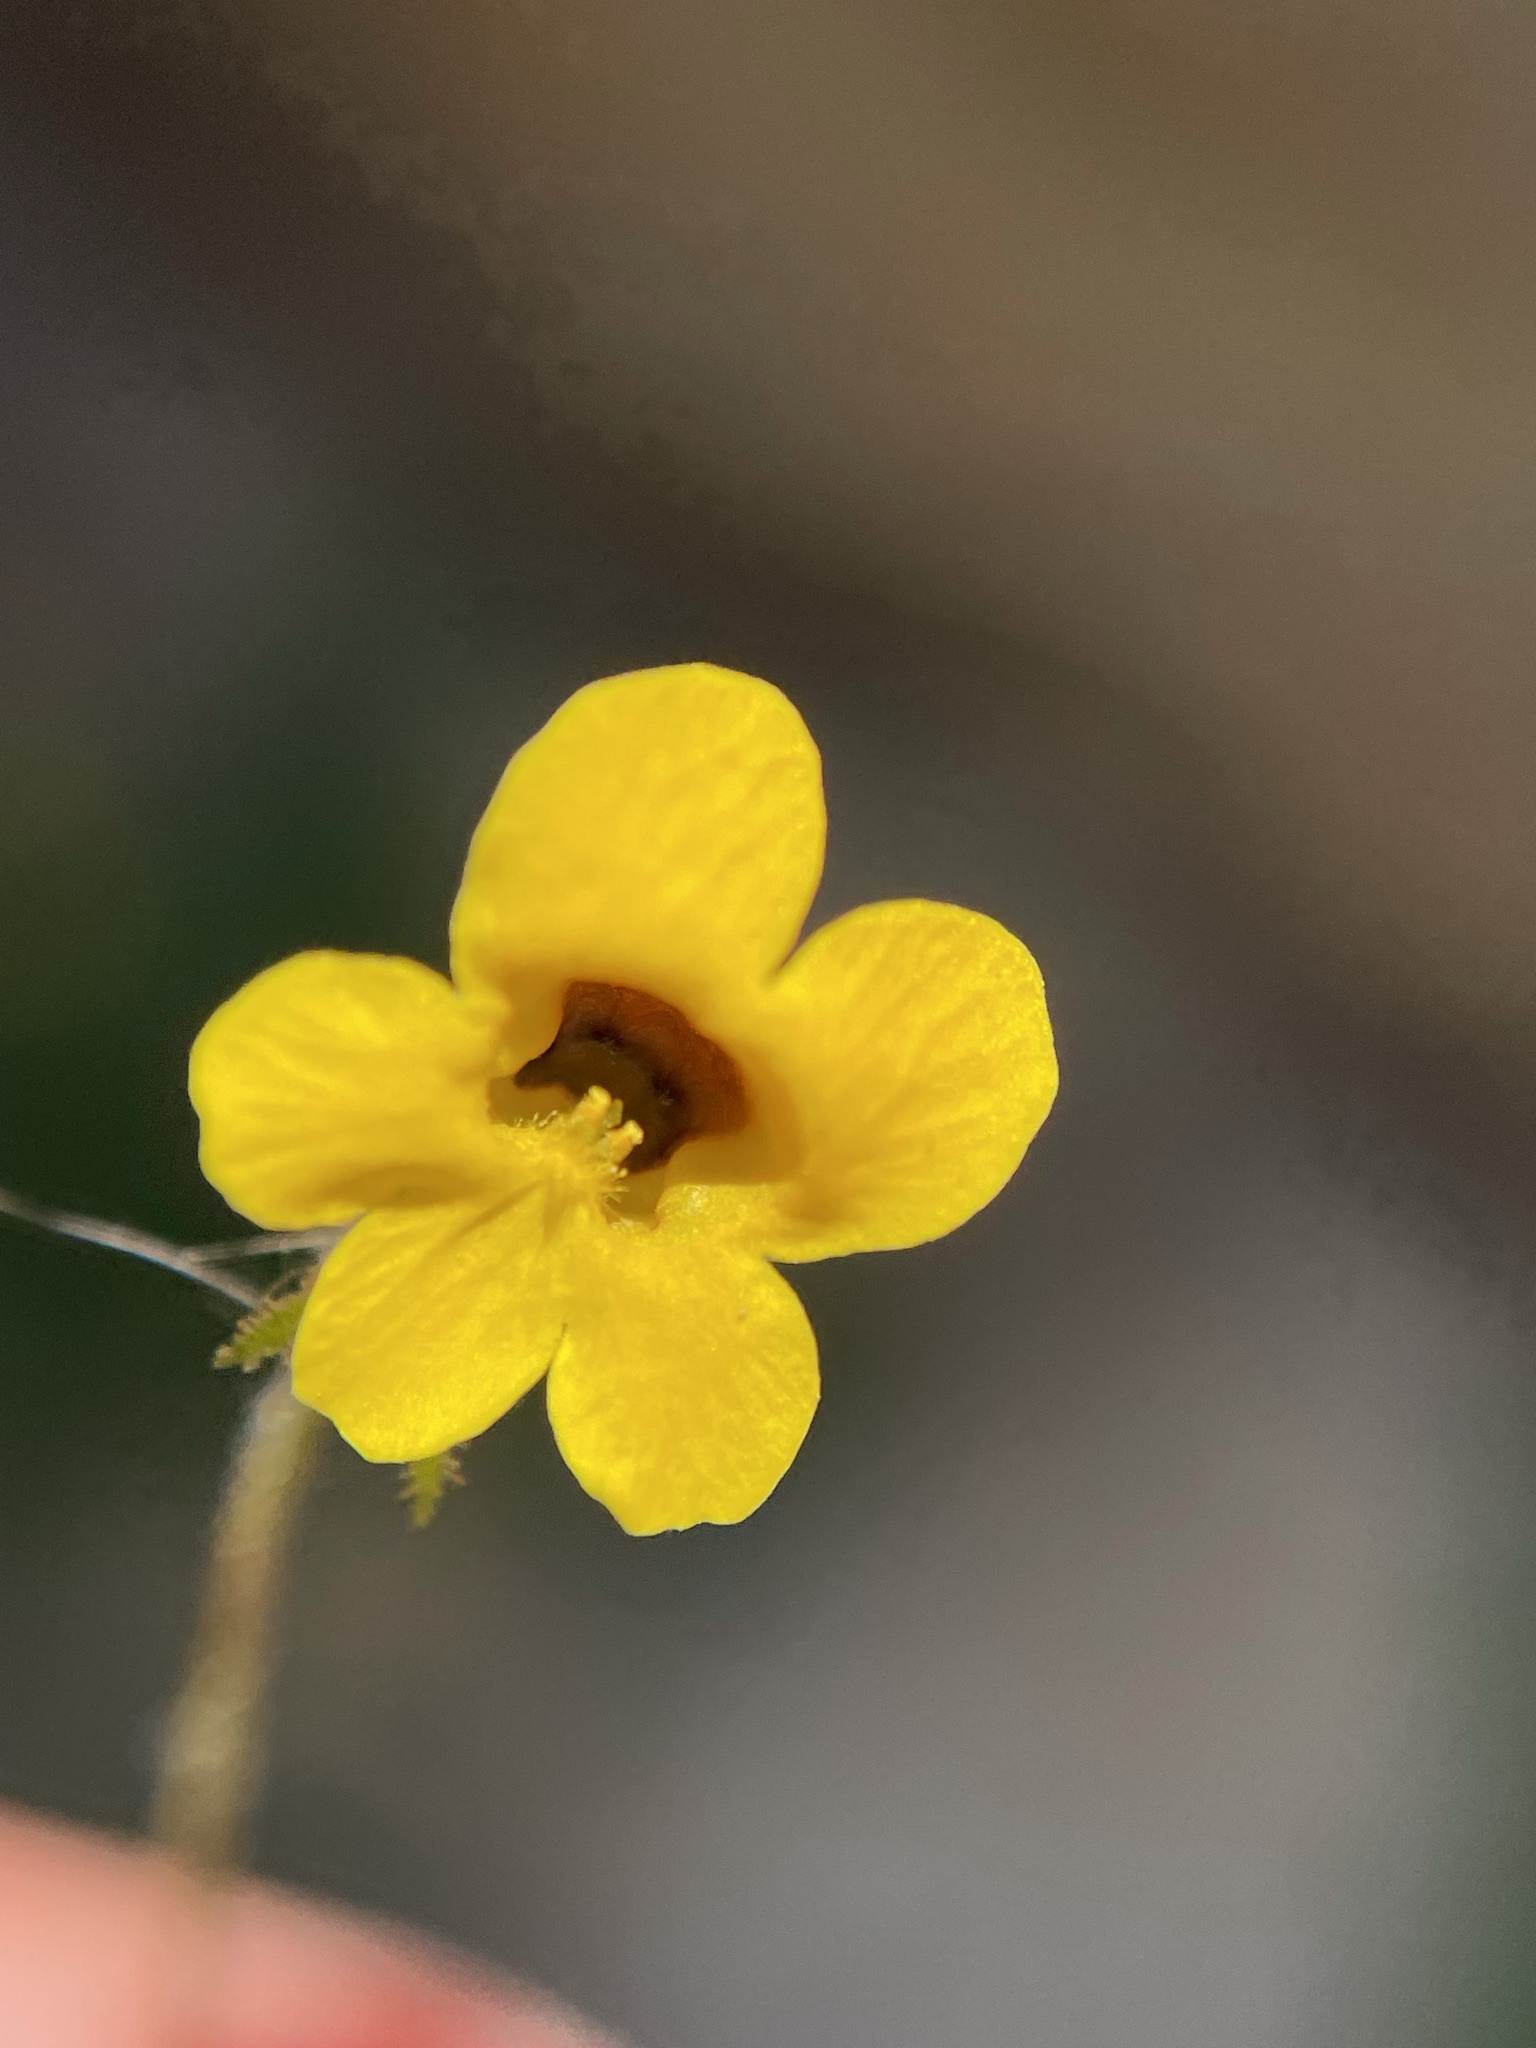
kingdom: Plantae
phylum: Tracheophyta
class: Magnoliopsida
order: Lamiales
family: Scrophulariaceae
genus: Jamesbrittenia
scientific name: Jamesbrittenia pedunculosa
